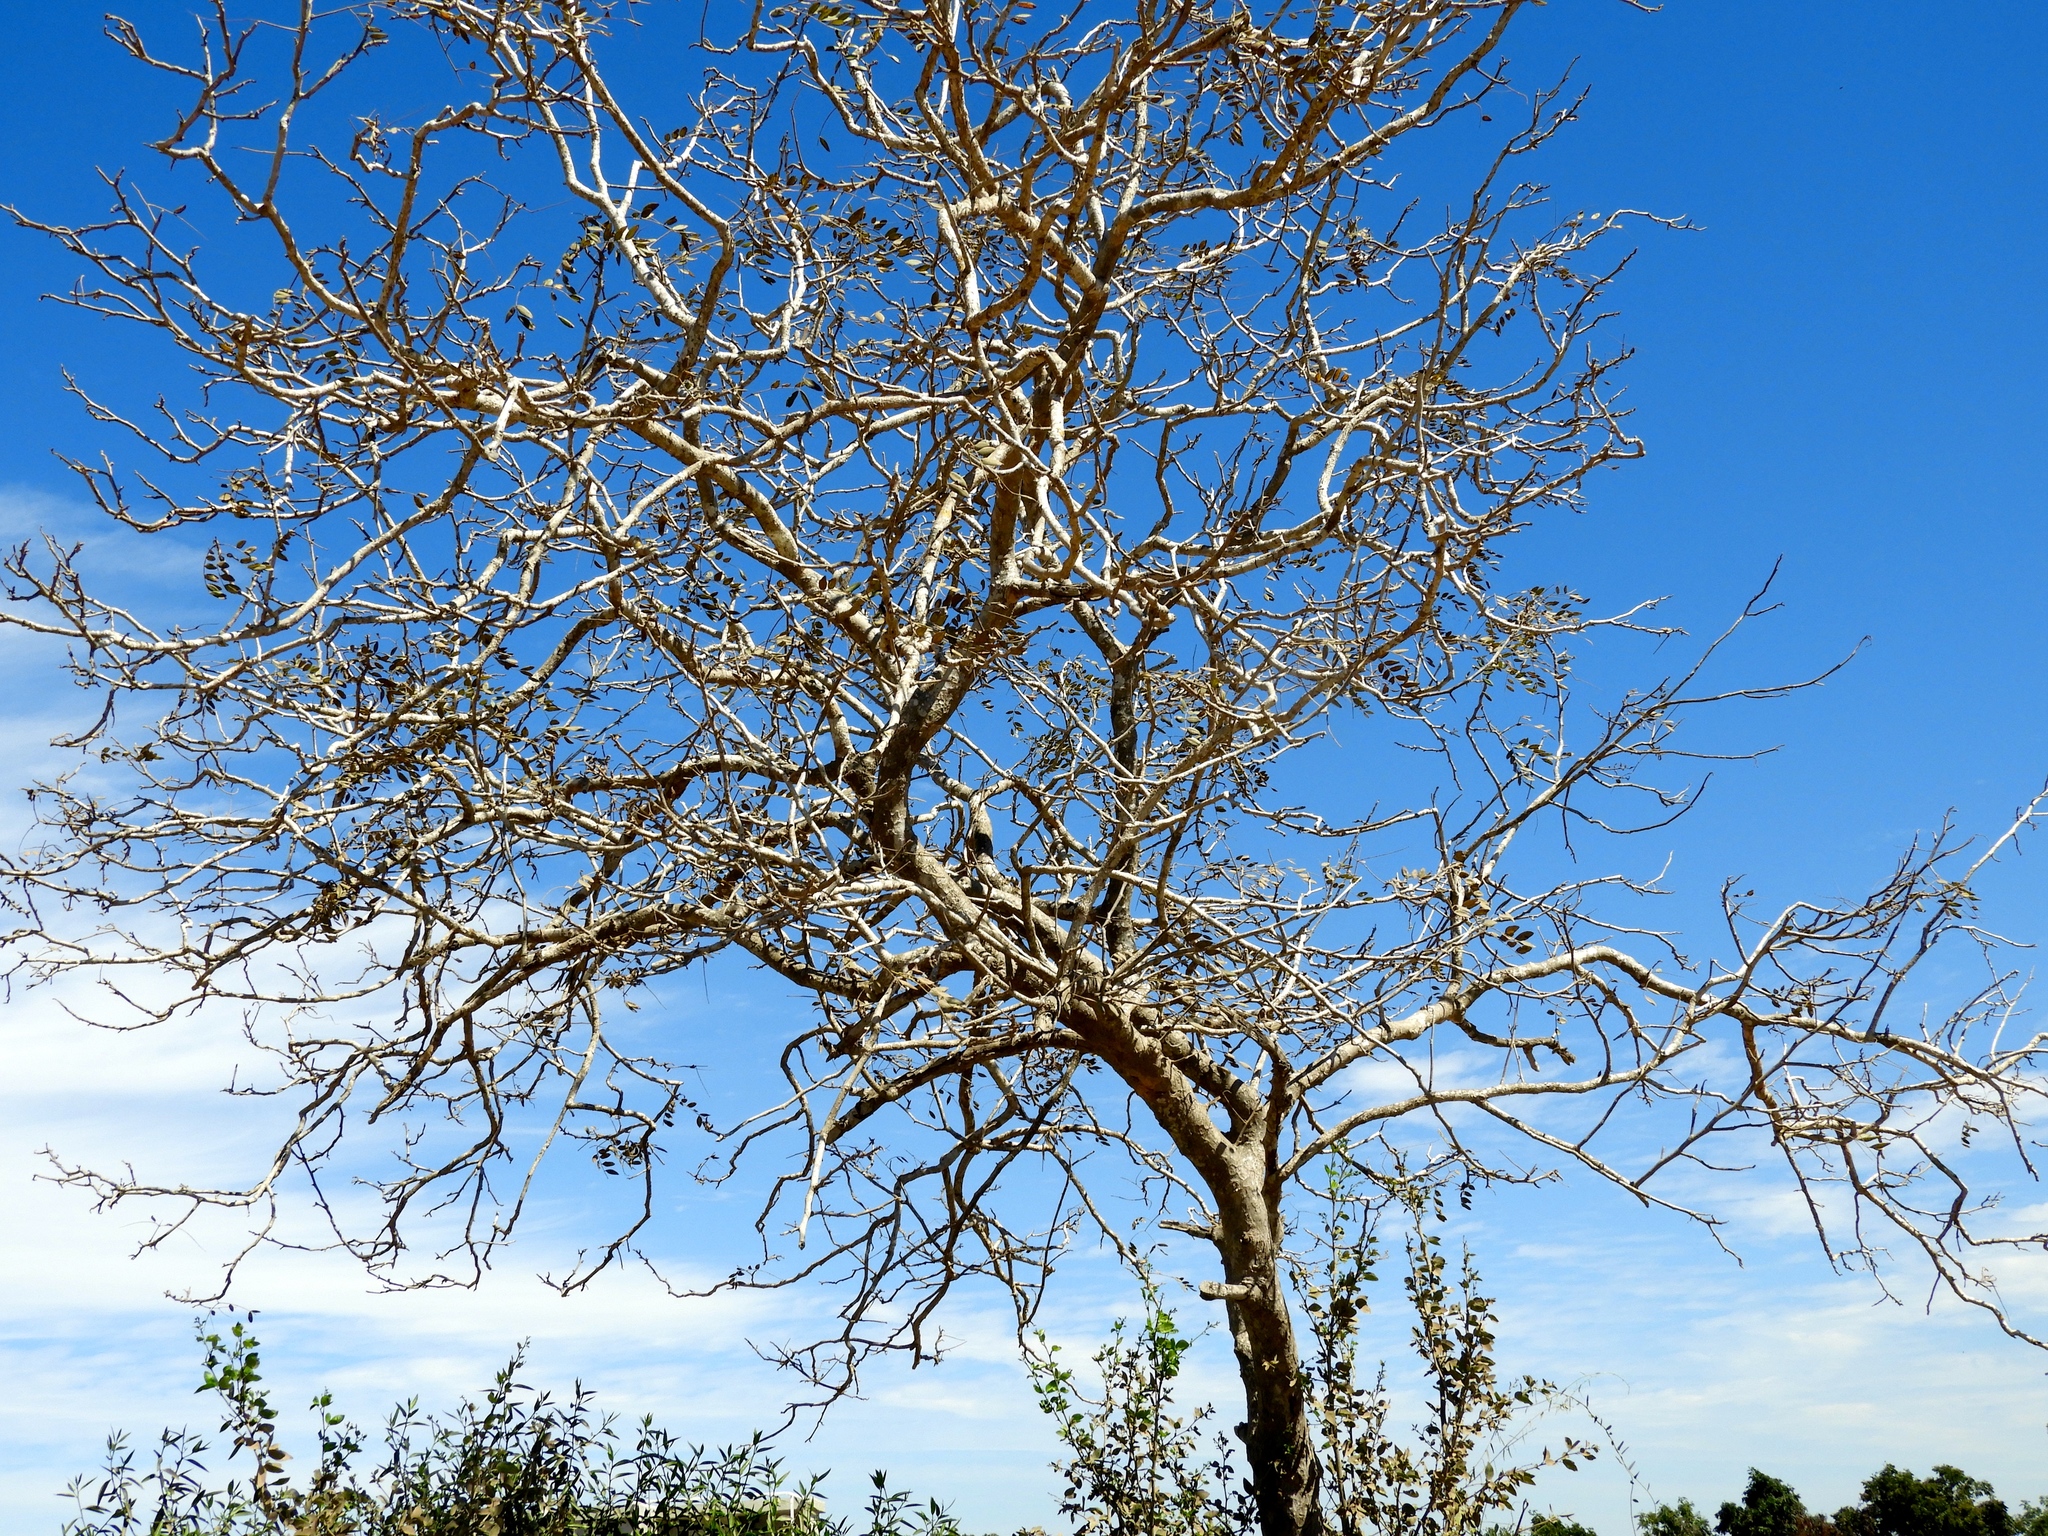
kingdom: Plantae
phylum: Tracheophyta
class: Magnoliopsida
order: Fabales
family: Fabaceae
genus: Coulteria
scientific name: Coulteria platyloba
